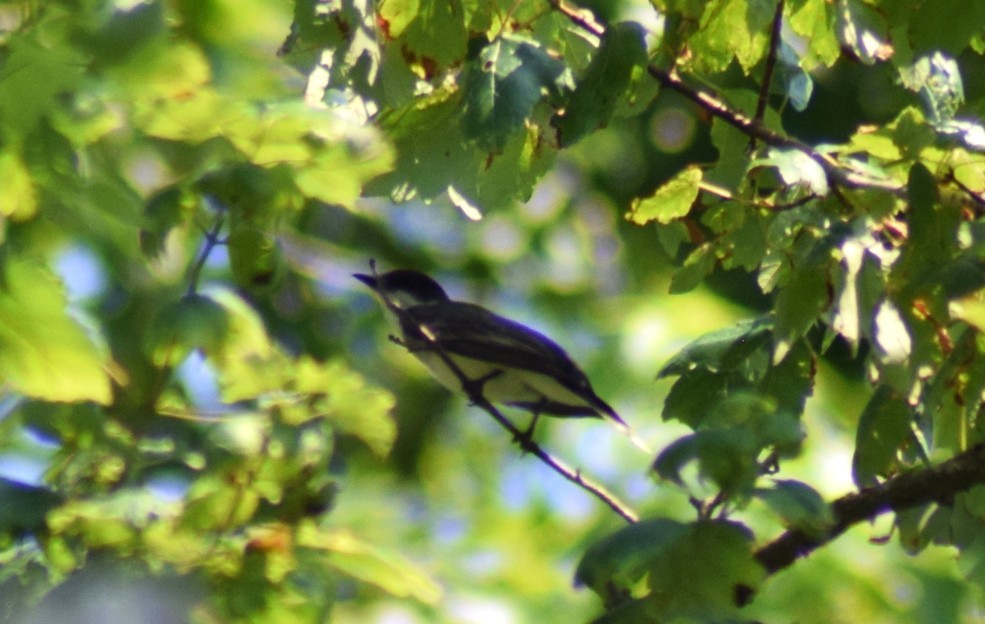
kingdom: Animalia
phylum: Chordata
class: Aves
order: Passeriformes
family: Tyrannidae
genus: Tyrannus
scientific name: Tyrannus tyrannus
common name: Eastern kingbird
